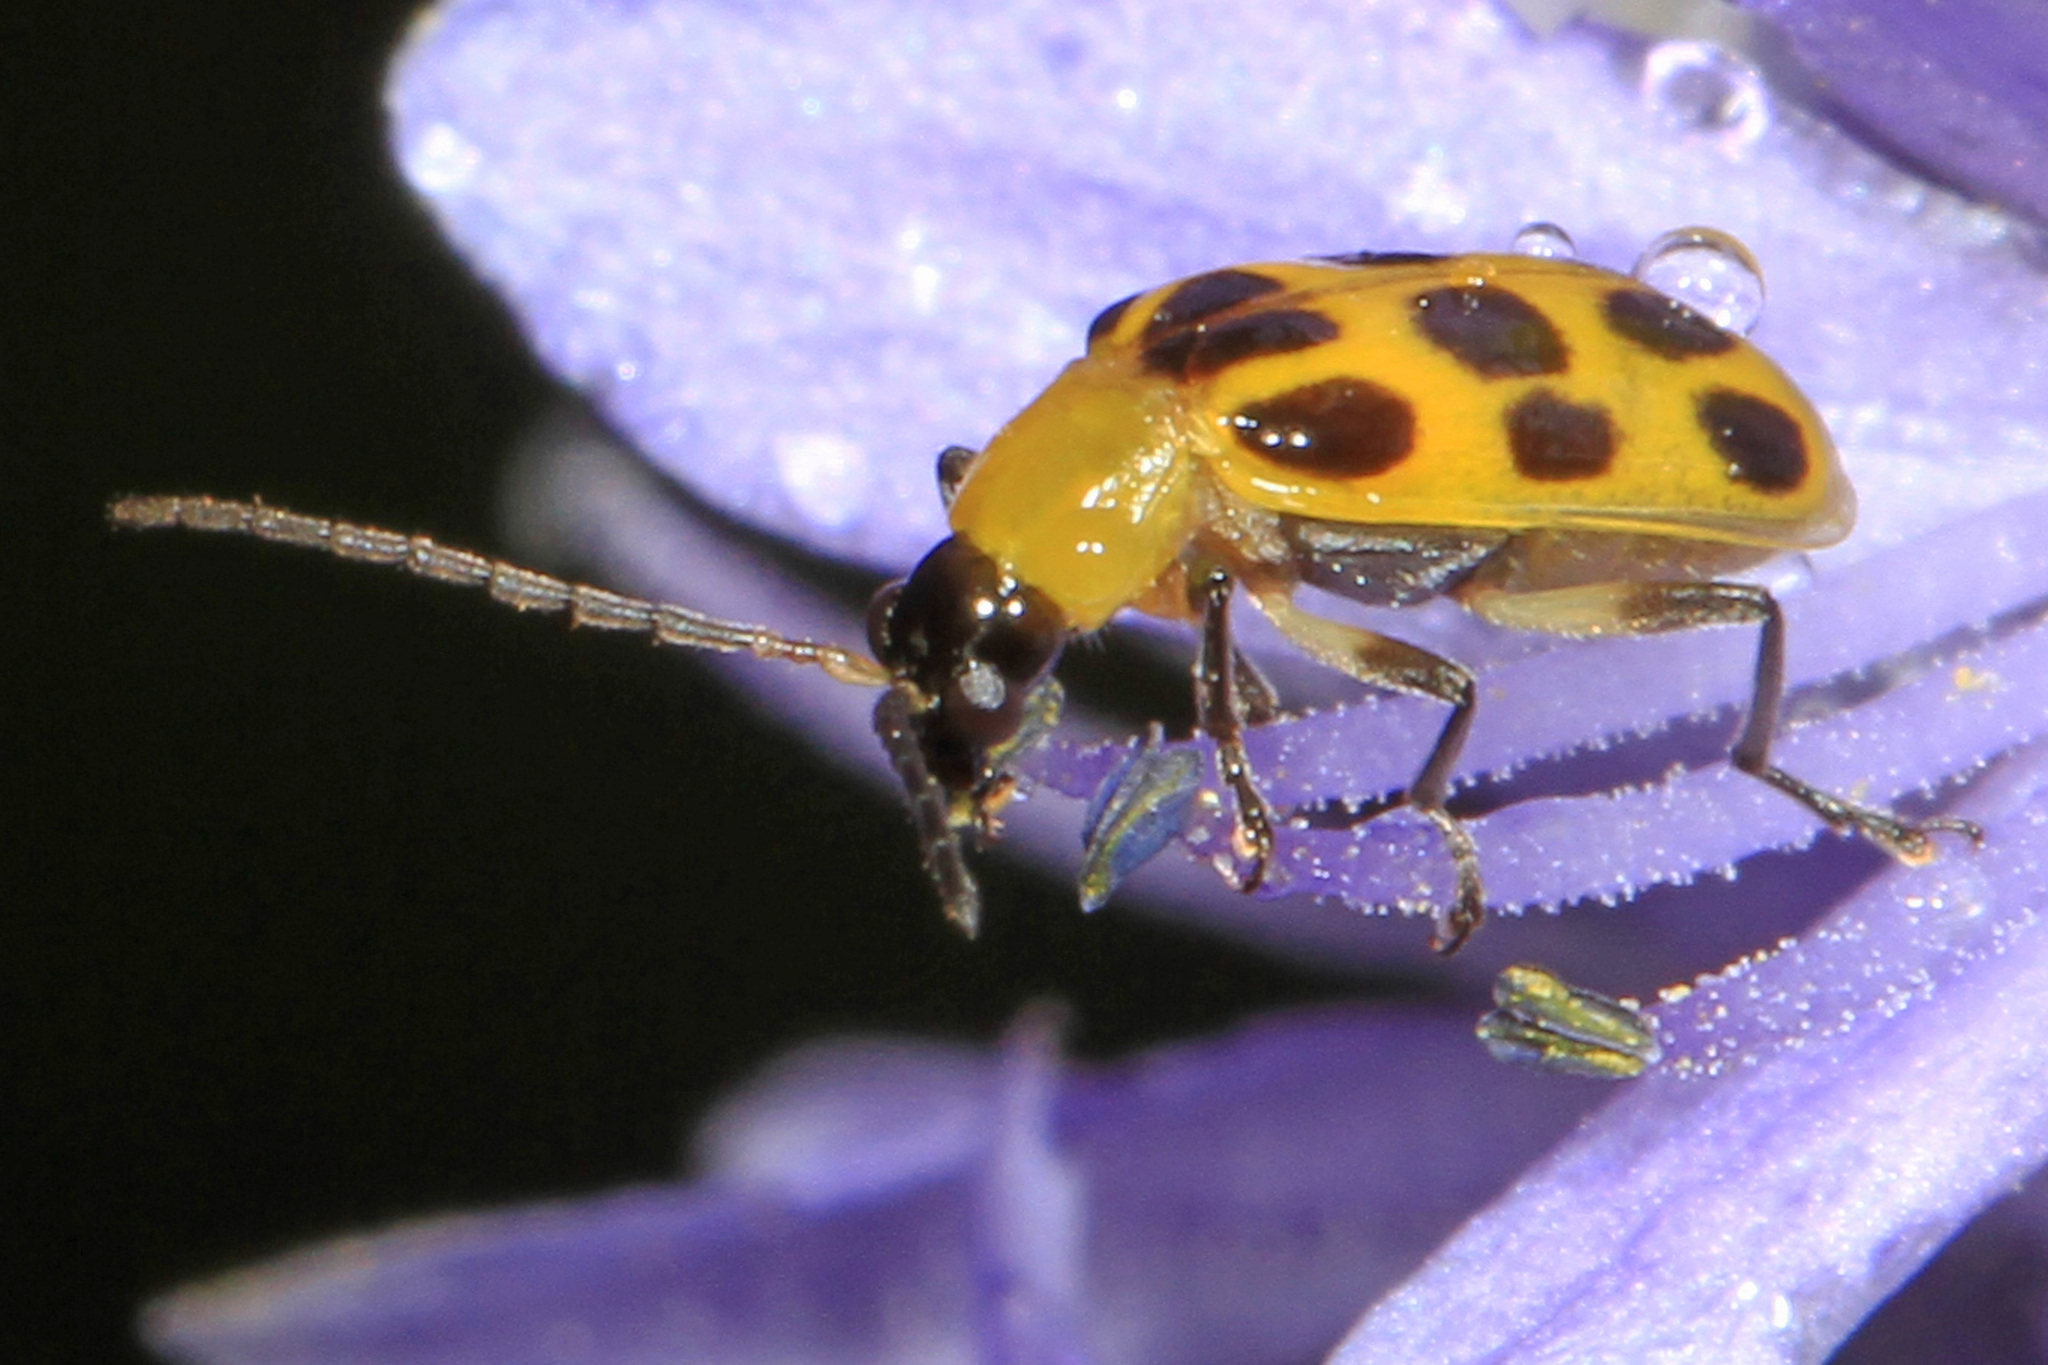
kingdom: Animalia
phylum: Arthropoda
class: Insecta
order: Coleoptera
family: Chrysomelidae
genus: Diabrotica
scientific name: Diabrotica undecimpunctata
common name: Spotted cucumber beetle
